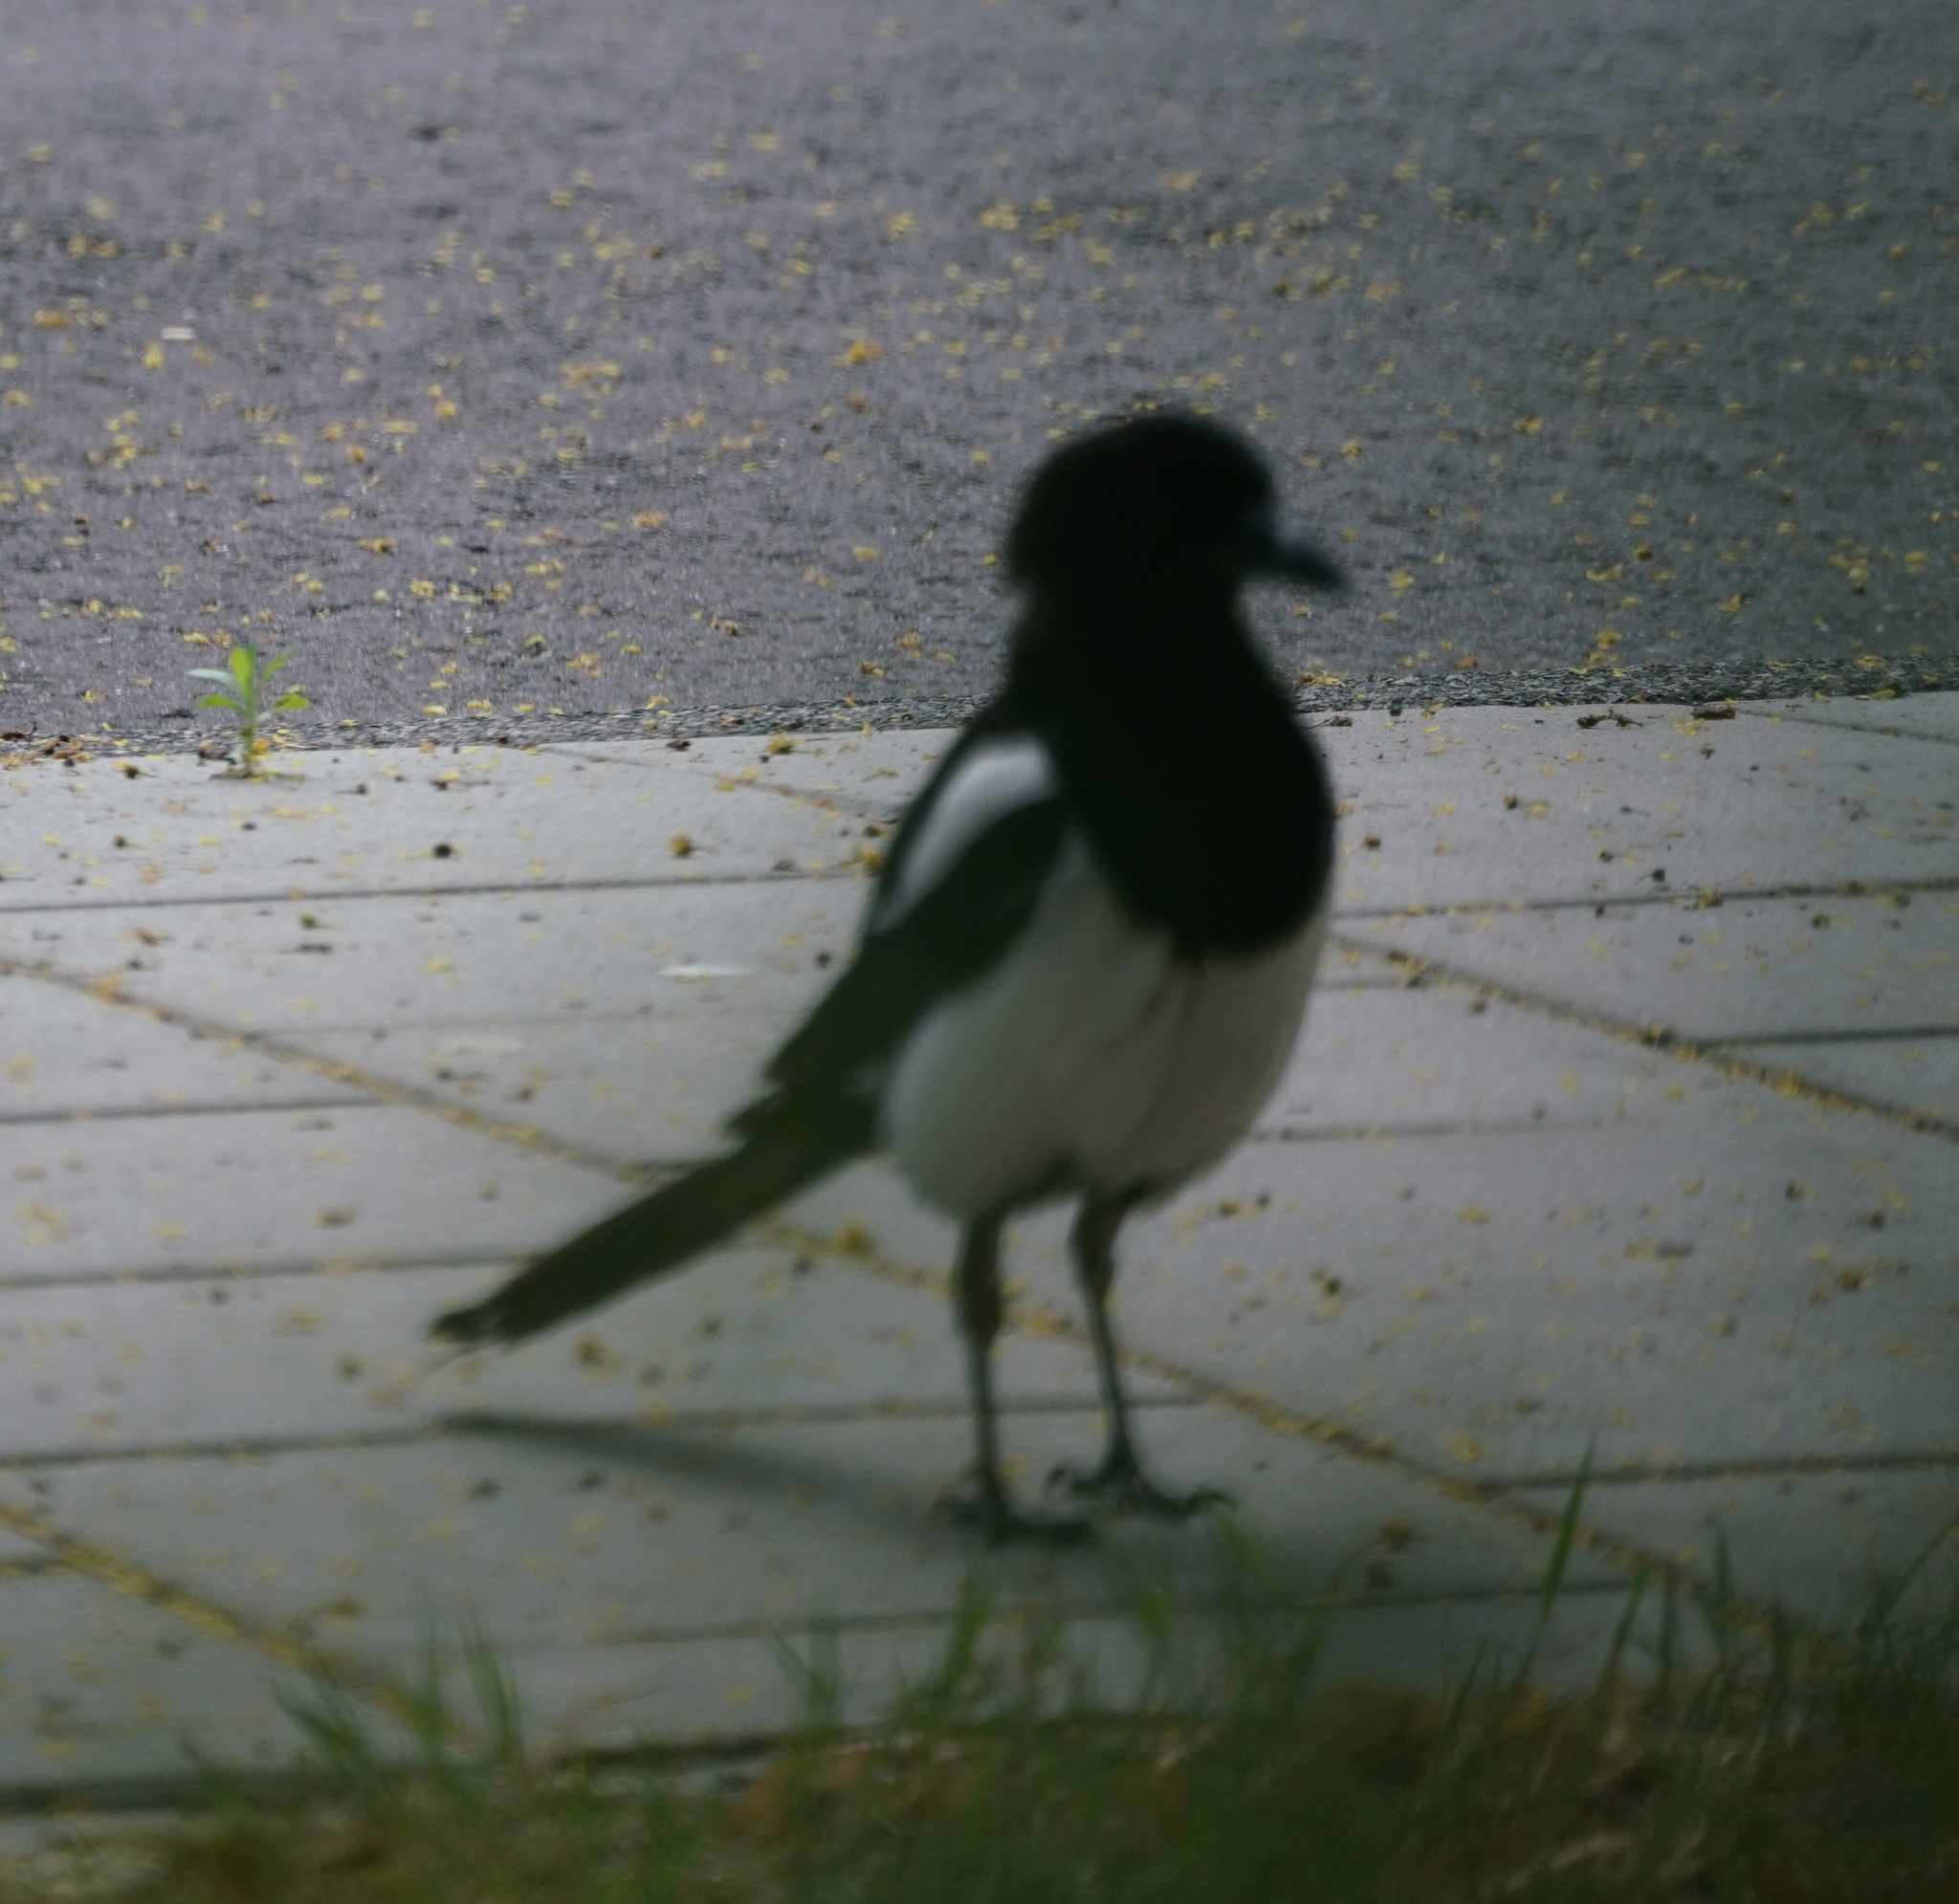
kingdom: Animalia
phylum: Chordata
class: Aves
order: Passeriformes
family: Corvidae
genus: Pica
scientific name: Pica pica
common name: Eurasian magpie
